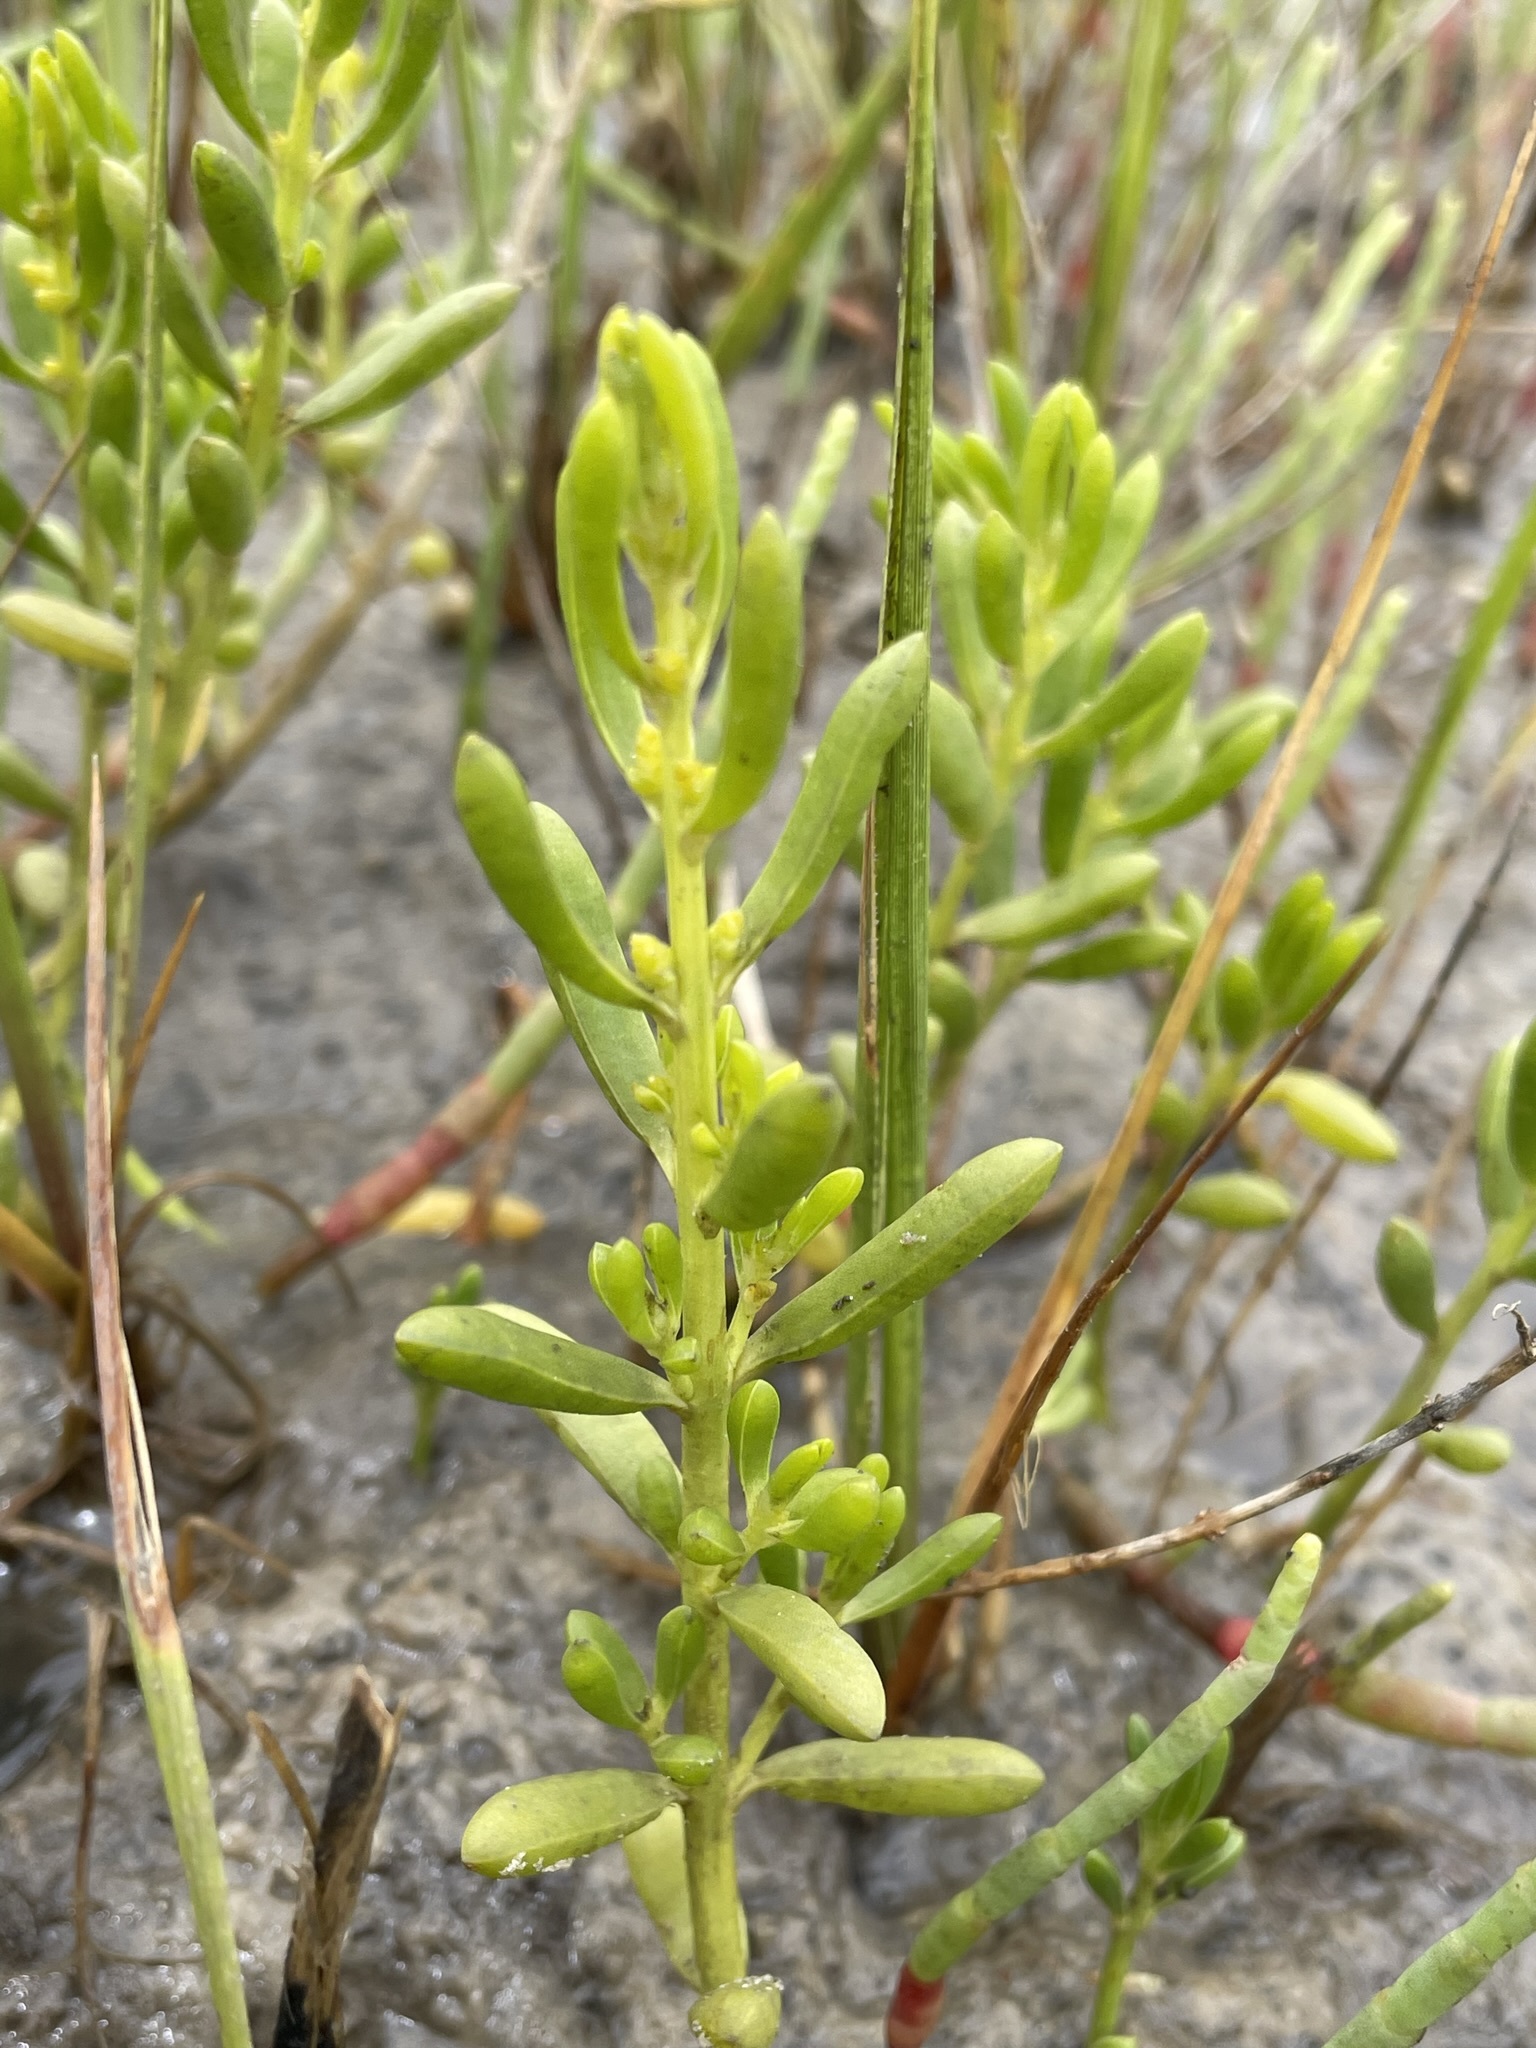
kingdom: Plantae
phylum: Tracheophyta
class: Magnoliopsida
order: Brassicales
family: Bataceae
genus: Batis
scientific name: Batis maritima
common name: Turtleweed
